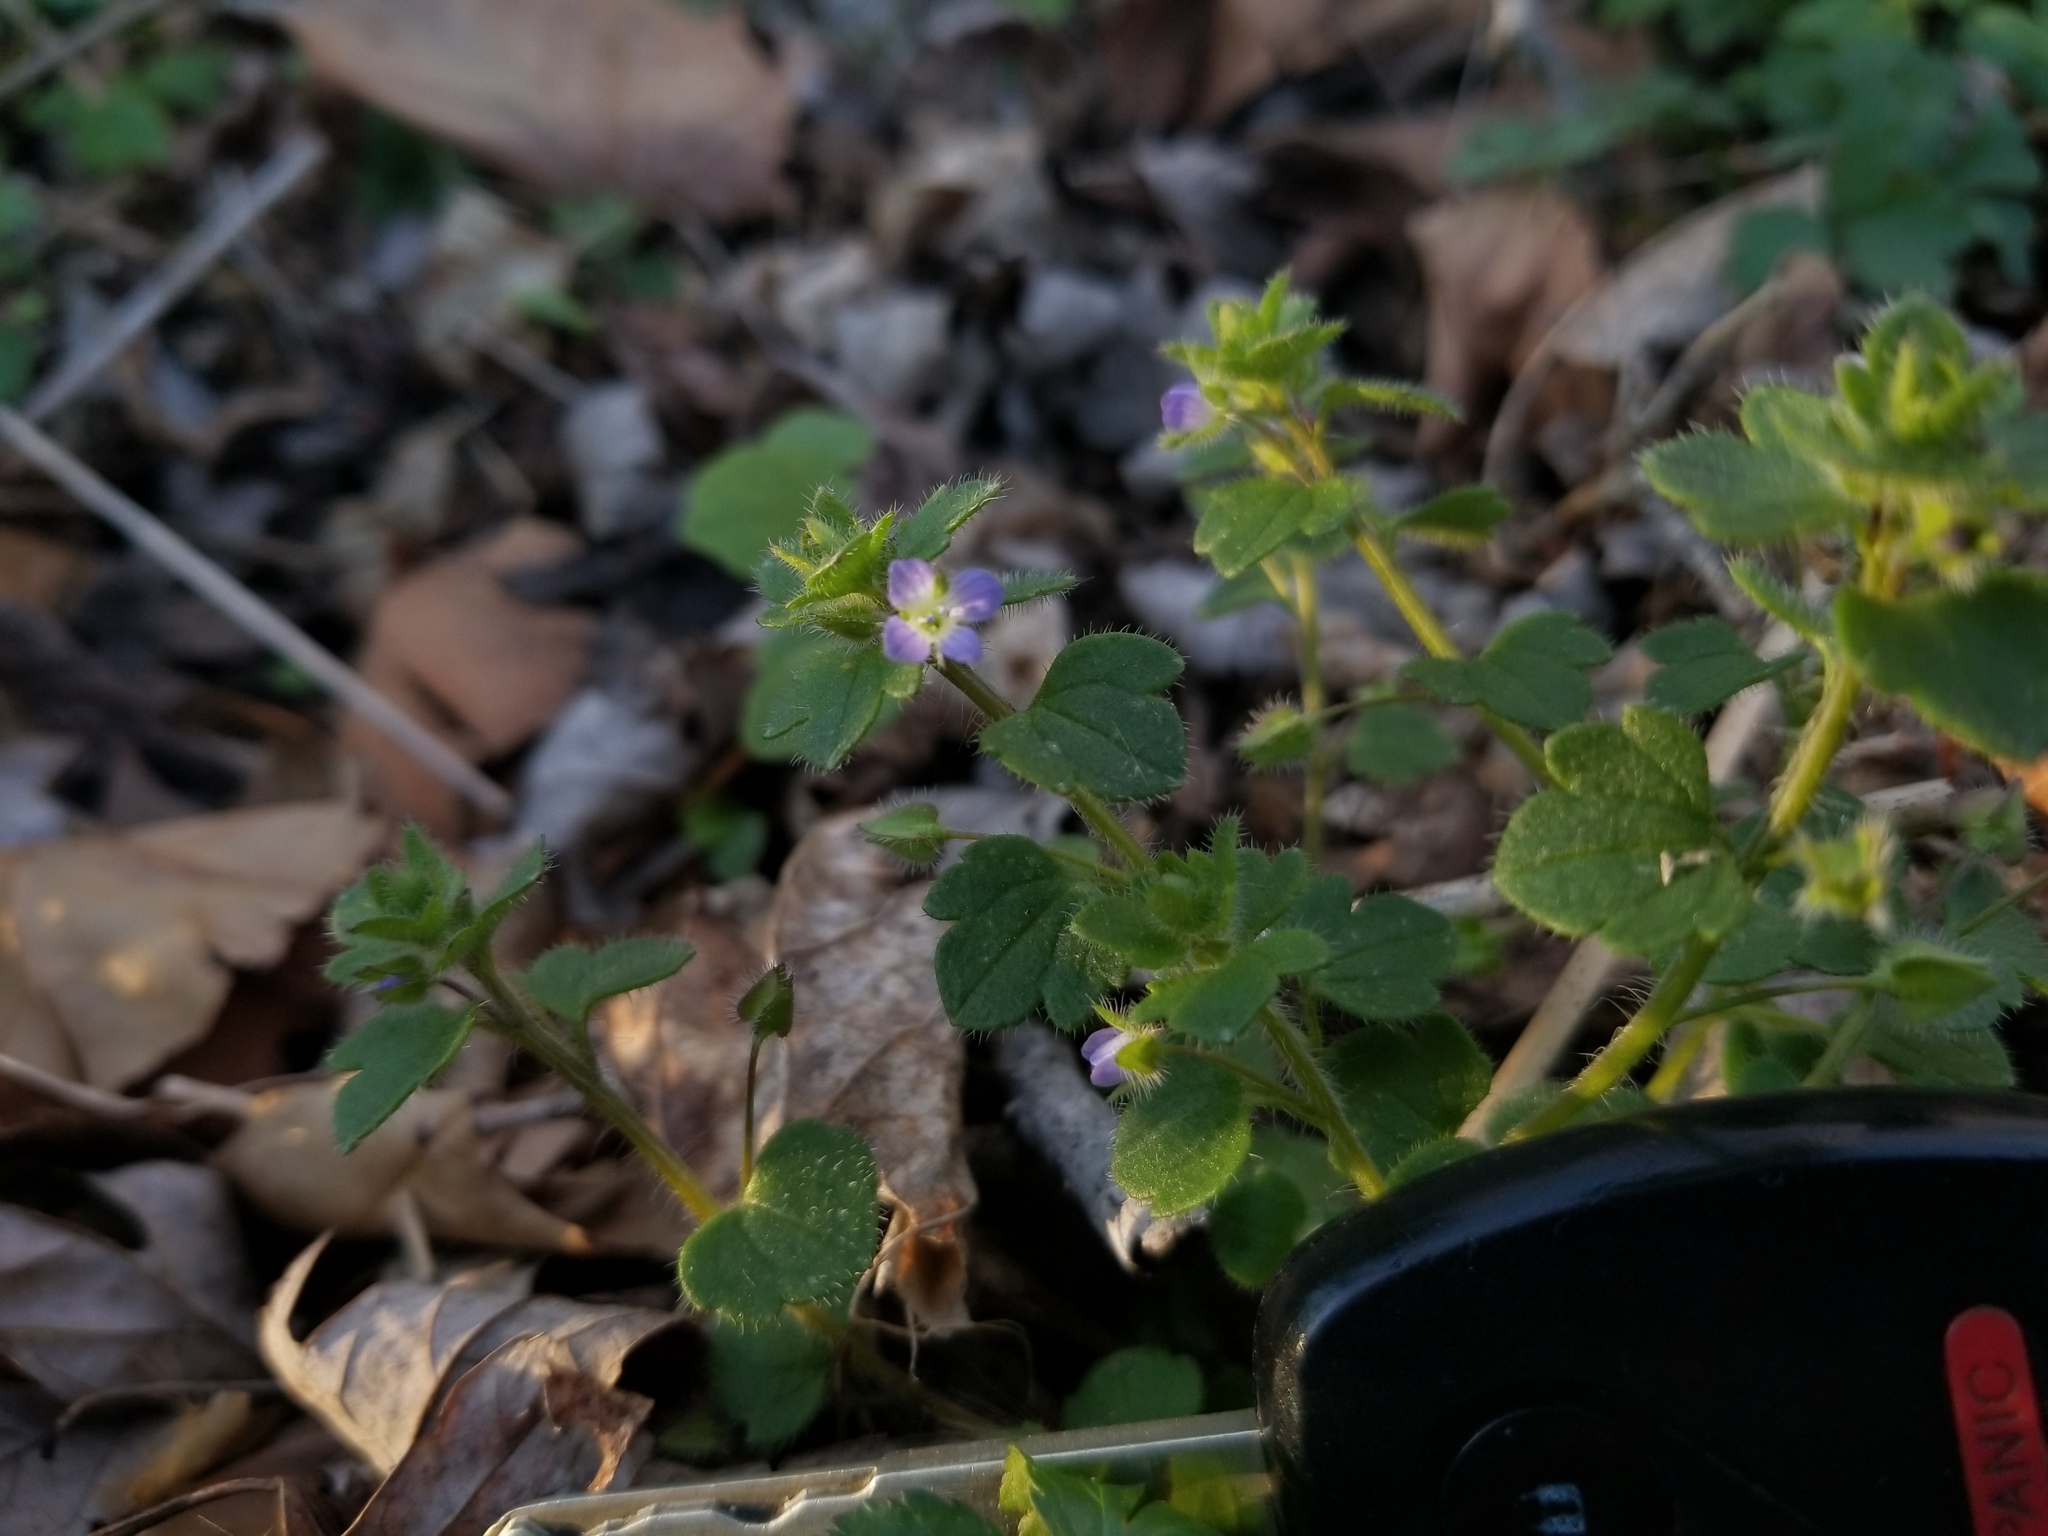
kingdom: Plantae
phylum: Tracheophyta
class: Magnoliopsida
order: Lamiales
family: Plantaginaceae
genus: Veronica
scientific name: Veronica hederifolia
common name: Ivy-leaved speedwell
